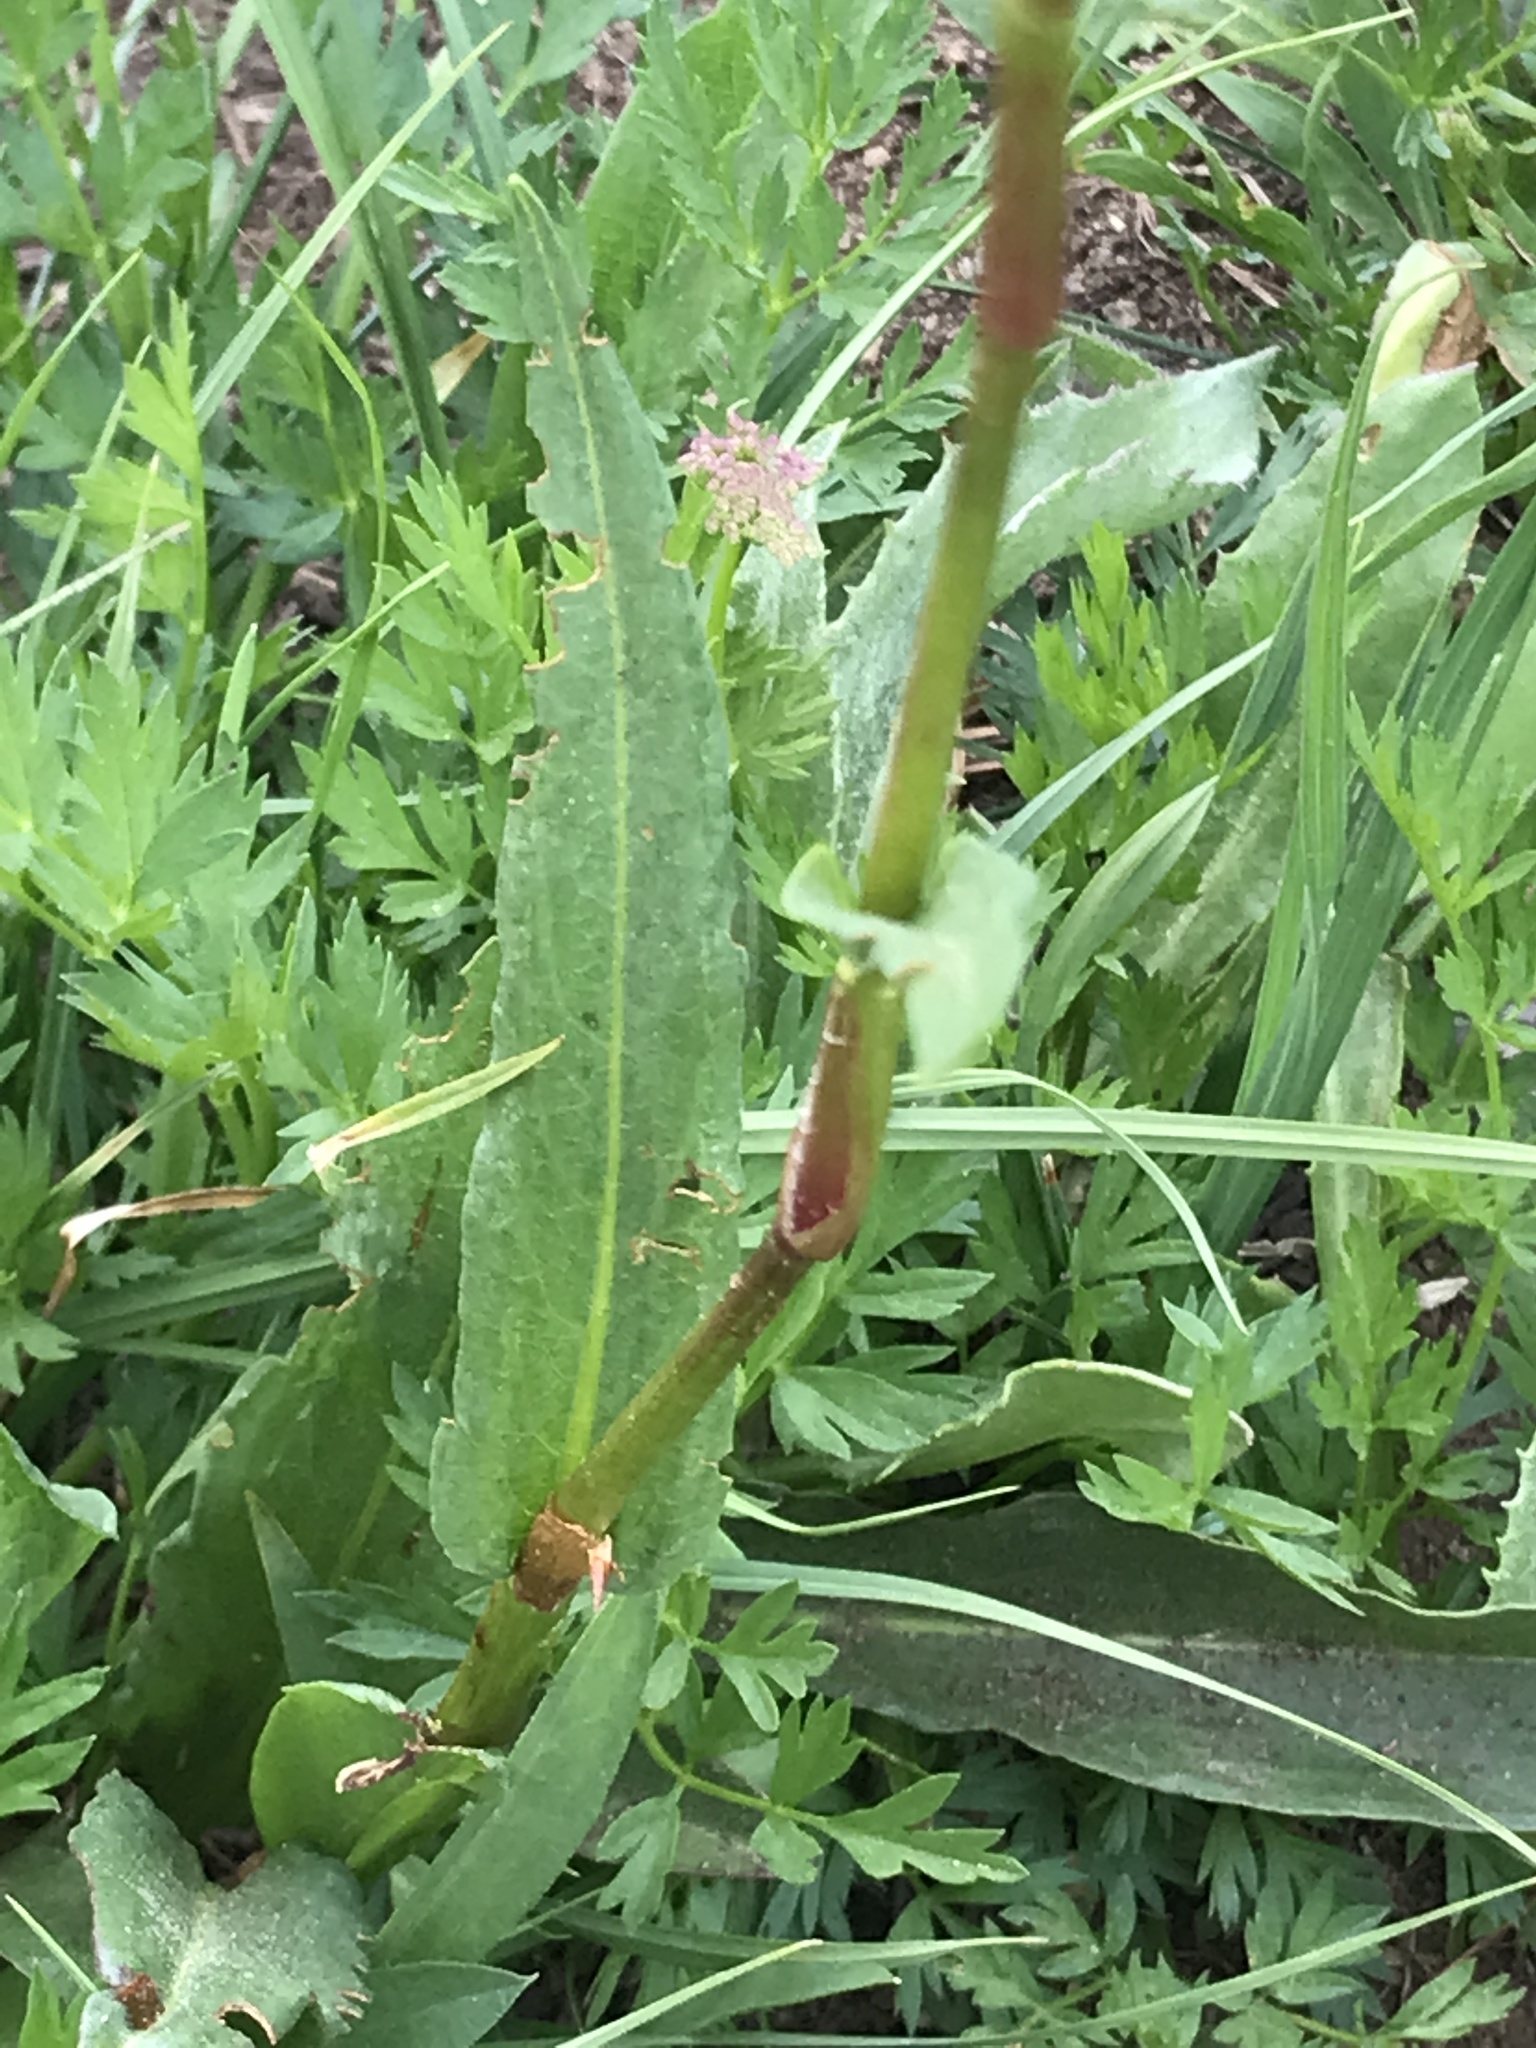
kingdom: Plantae
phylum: Tracheophyta
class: Magnoliopsida
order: Caryophyllales
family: Polygonaceae
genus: Bistorta
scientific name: Bistorta bistortoides
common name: American bistort
